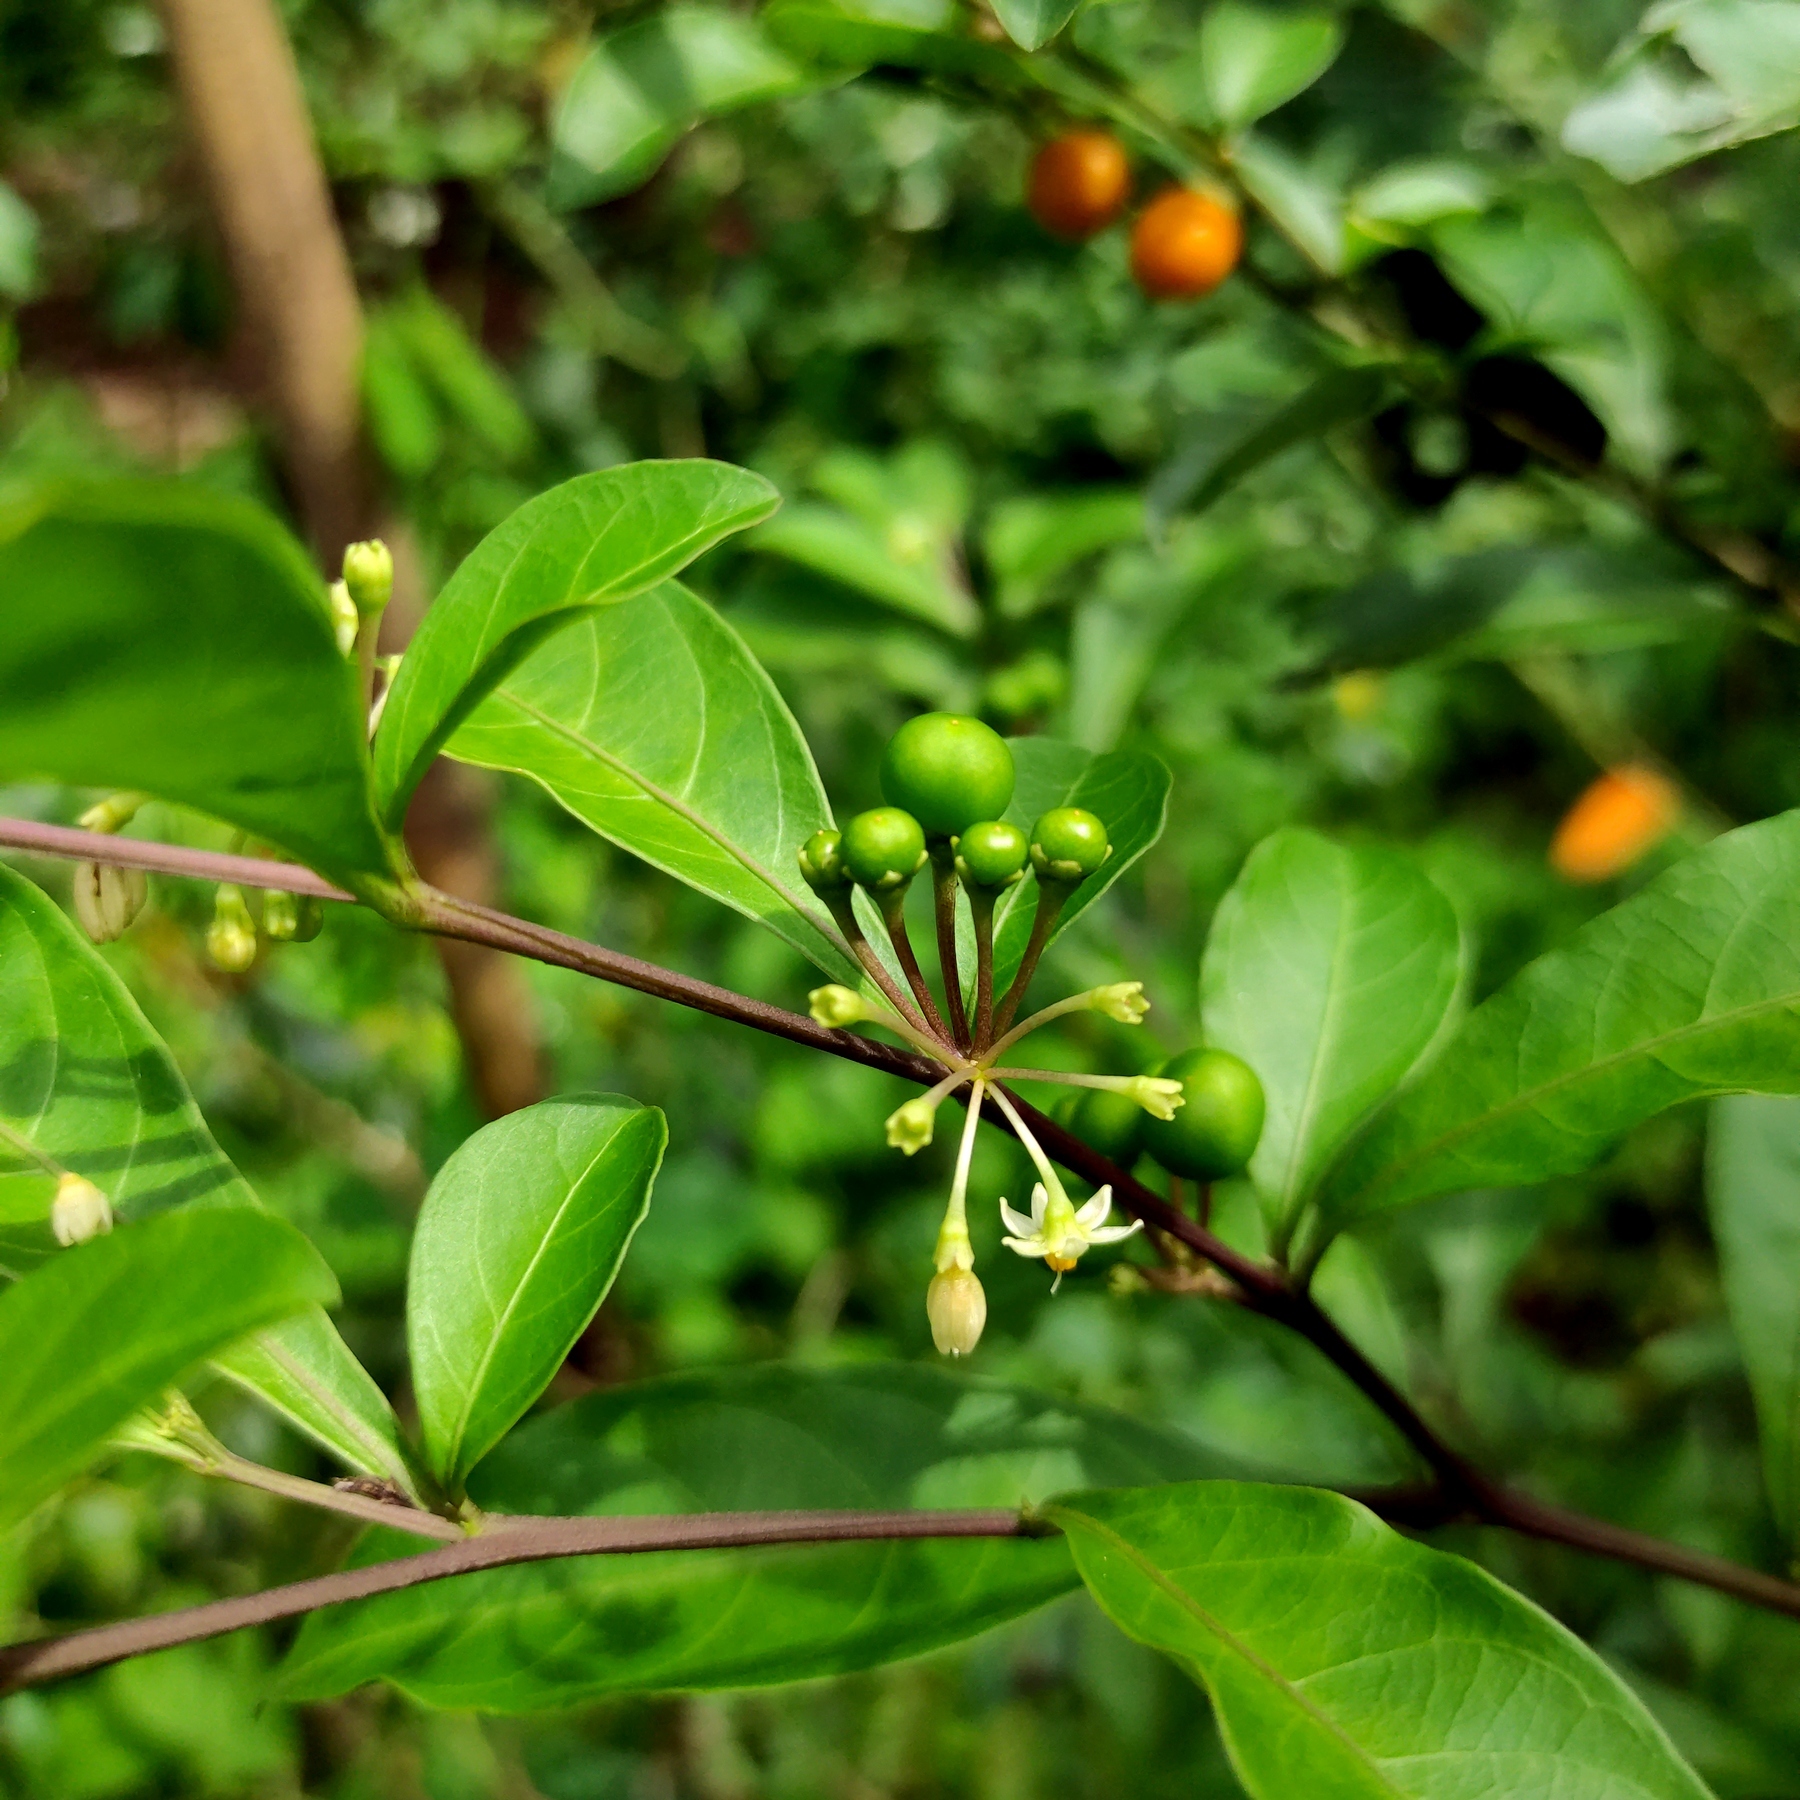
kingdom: Plantae
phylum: Tracheophyta
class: Magnoliopsida
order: Solanales
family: Solanaceae
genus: Solanum
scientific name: Solanum diphyllum
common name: Twoleaf nightshade
